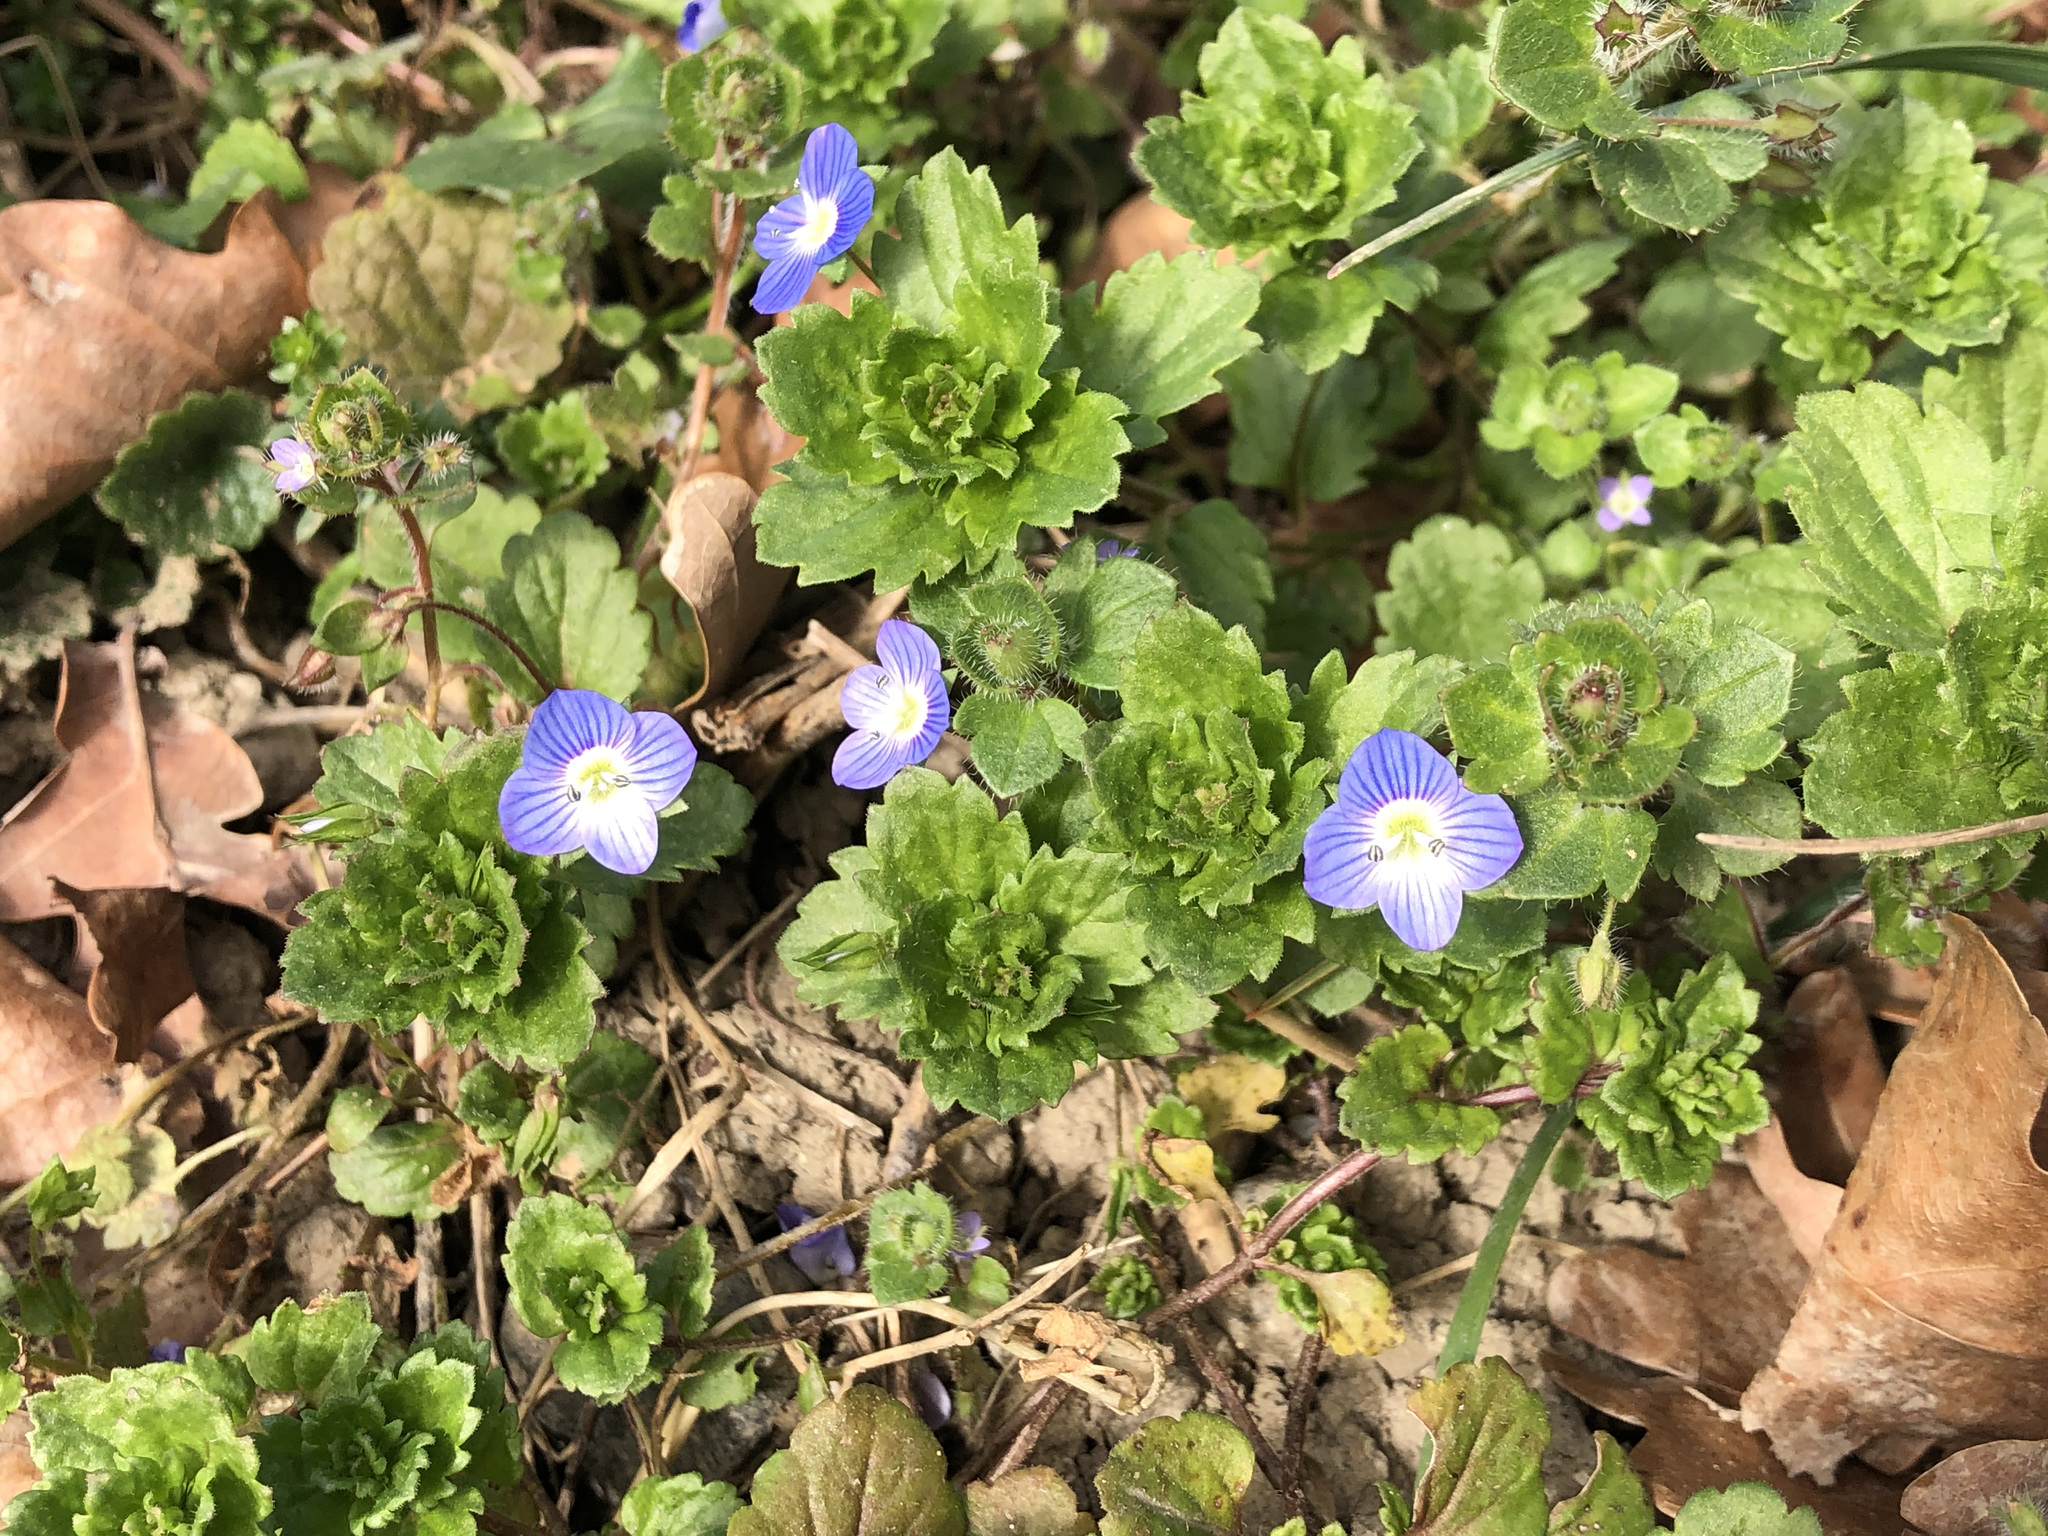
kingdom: Plantae
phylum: Tracheophyta
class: Magnoliopsida
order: Lamiales
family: Plantaginaceae
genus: Veronica
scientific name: Veronica persica
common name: Common field-speedwell
